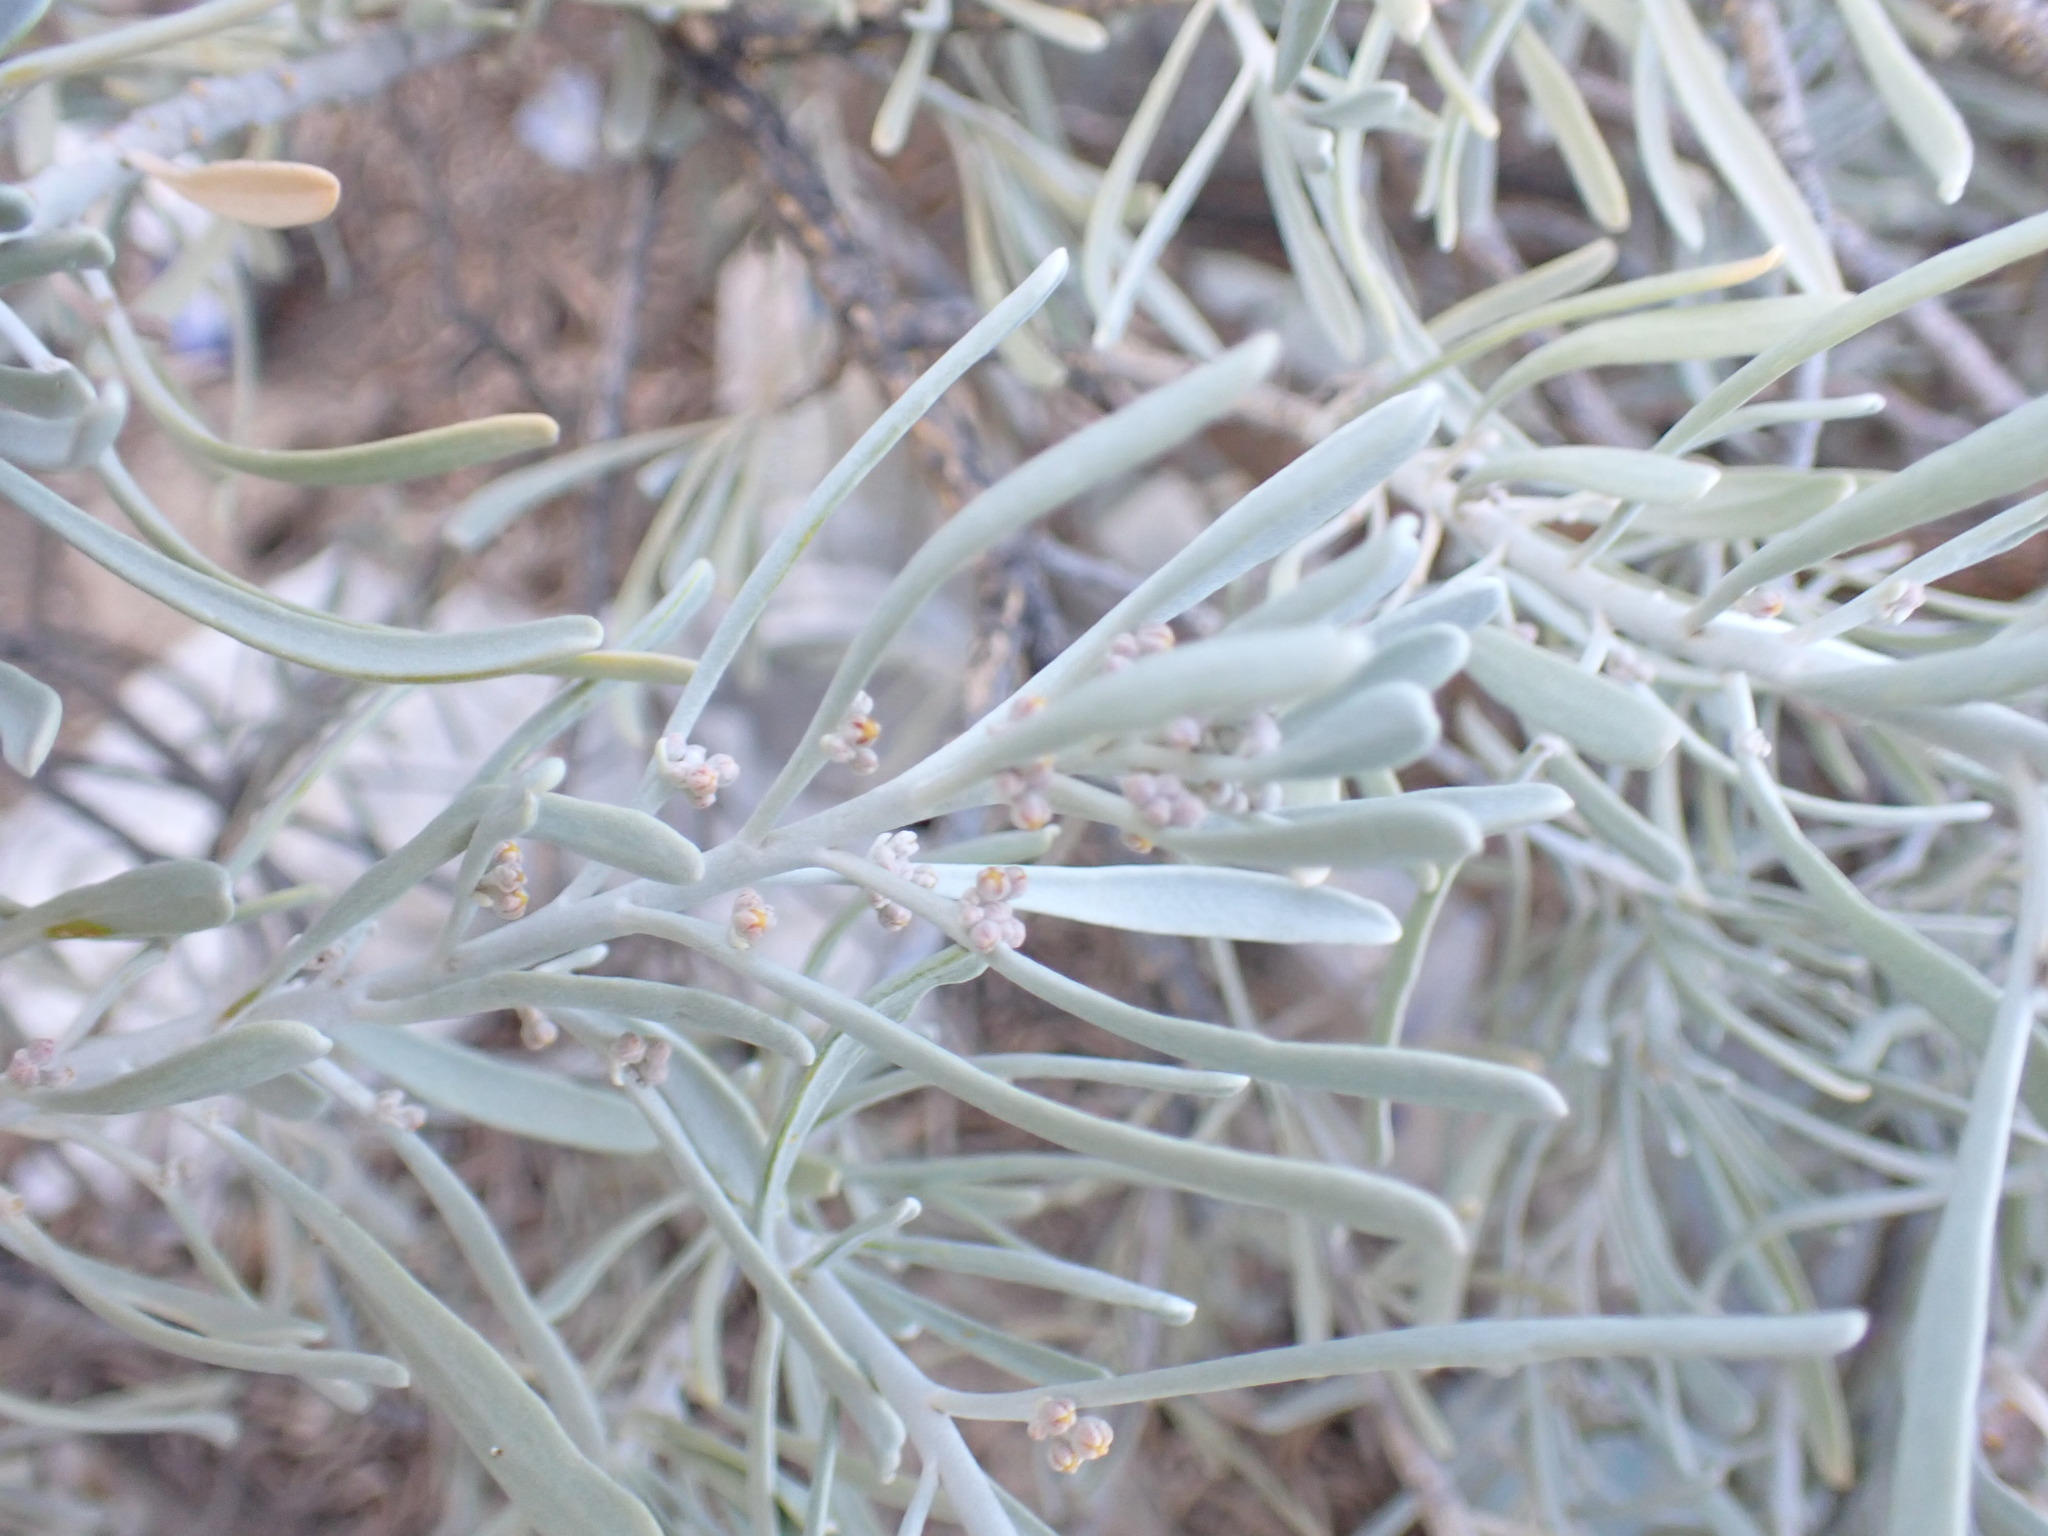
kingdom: Plantae
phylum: Tracheophyta
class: Magnoliopsida
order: Sapindales
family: Rutaceae
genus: Cneorum
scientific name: Cneorum pulverulentum
